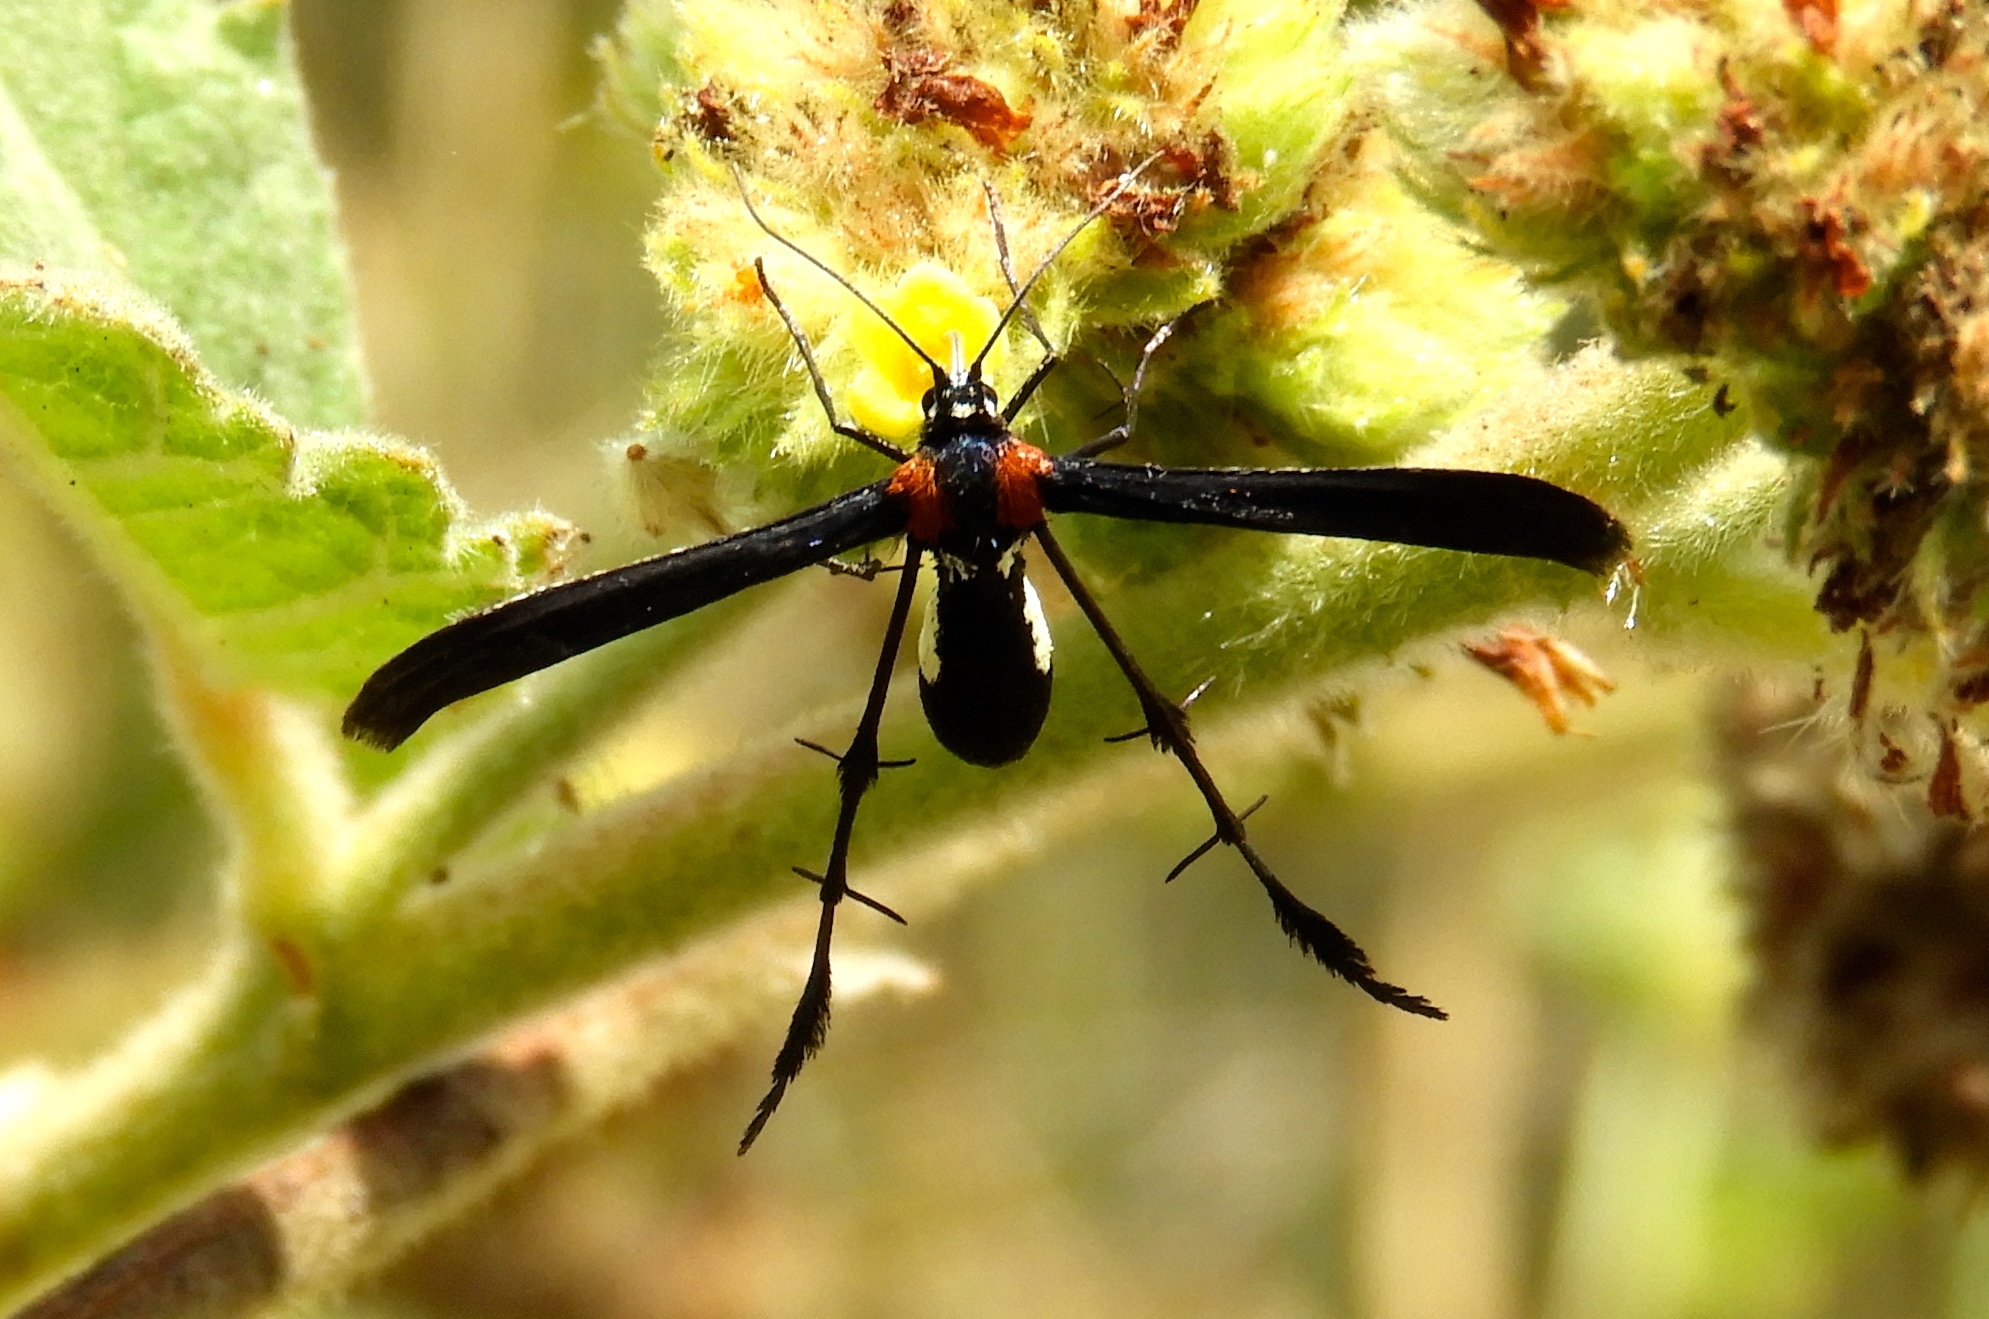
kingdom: Animalia
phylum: Arthropoda
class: Insecta
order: Lepidoptera
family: Pterophoridae
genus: Hellinsia
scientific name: Hellinsia chamelai
